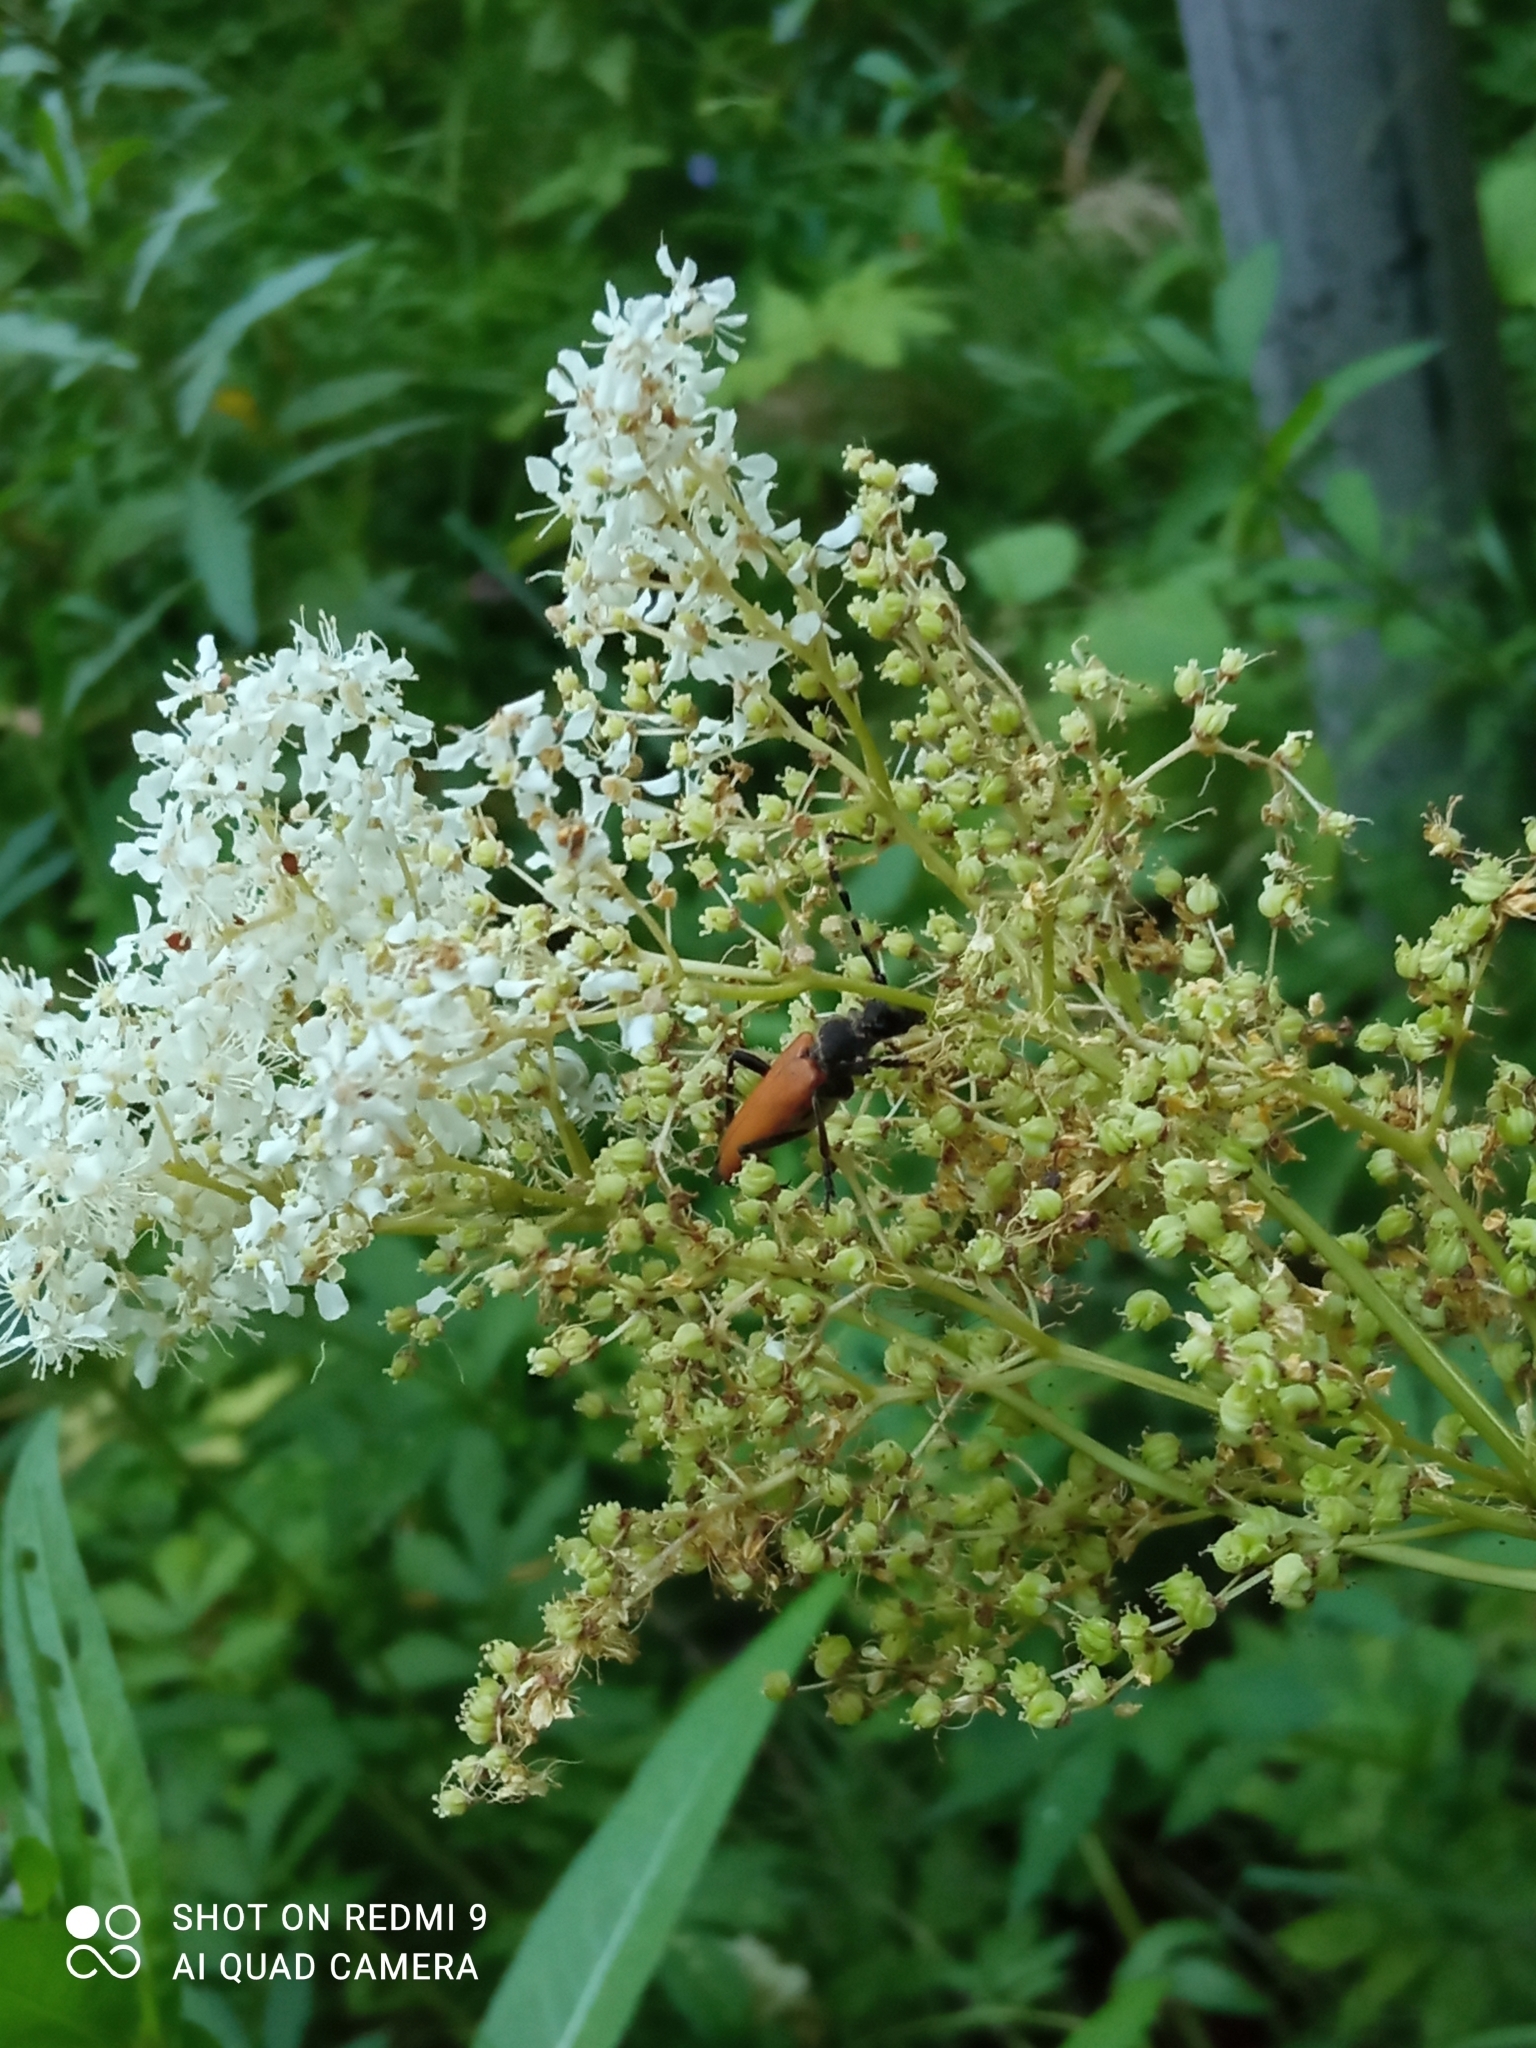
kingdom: Animalia
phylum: Arthropoda
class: Insecta
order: Coleoptera
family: Cerambycidae
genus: Stictoleptura
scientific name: Stictoleptura variicornis
